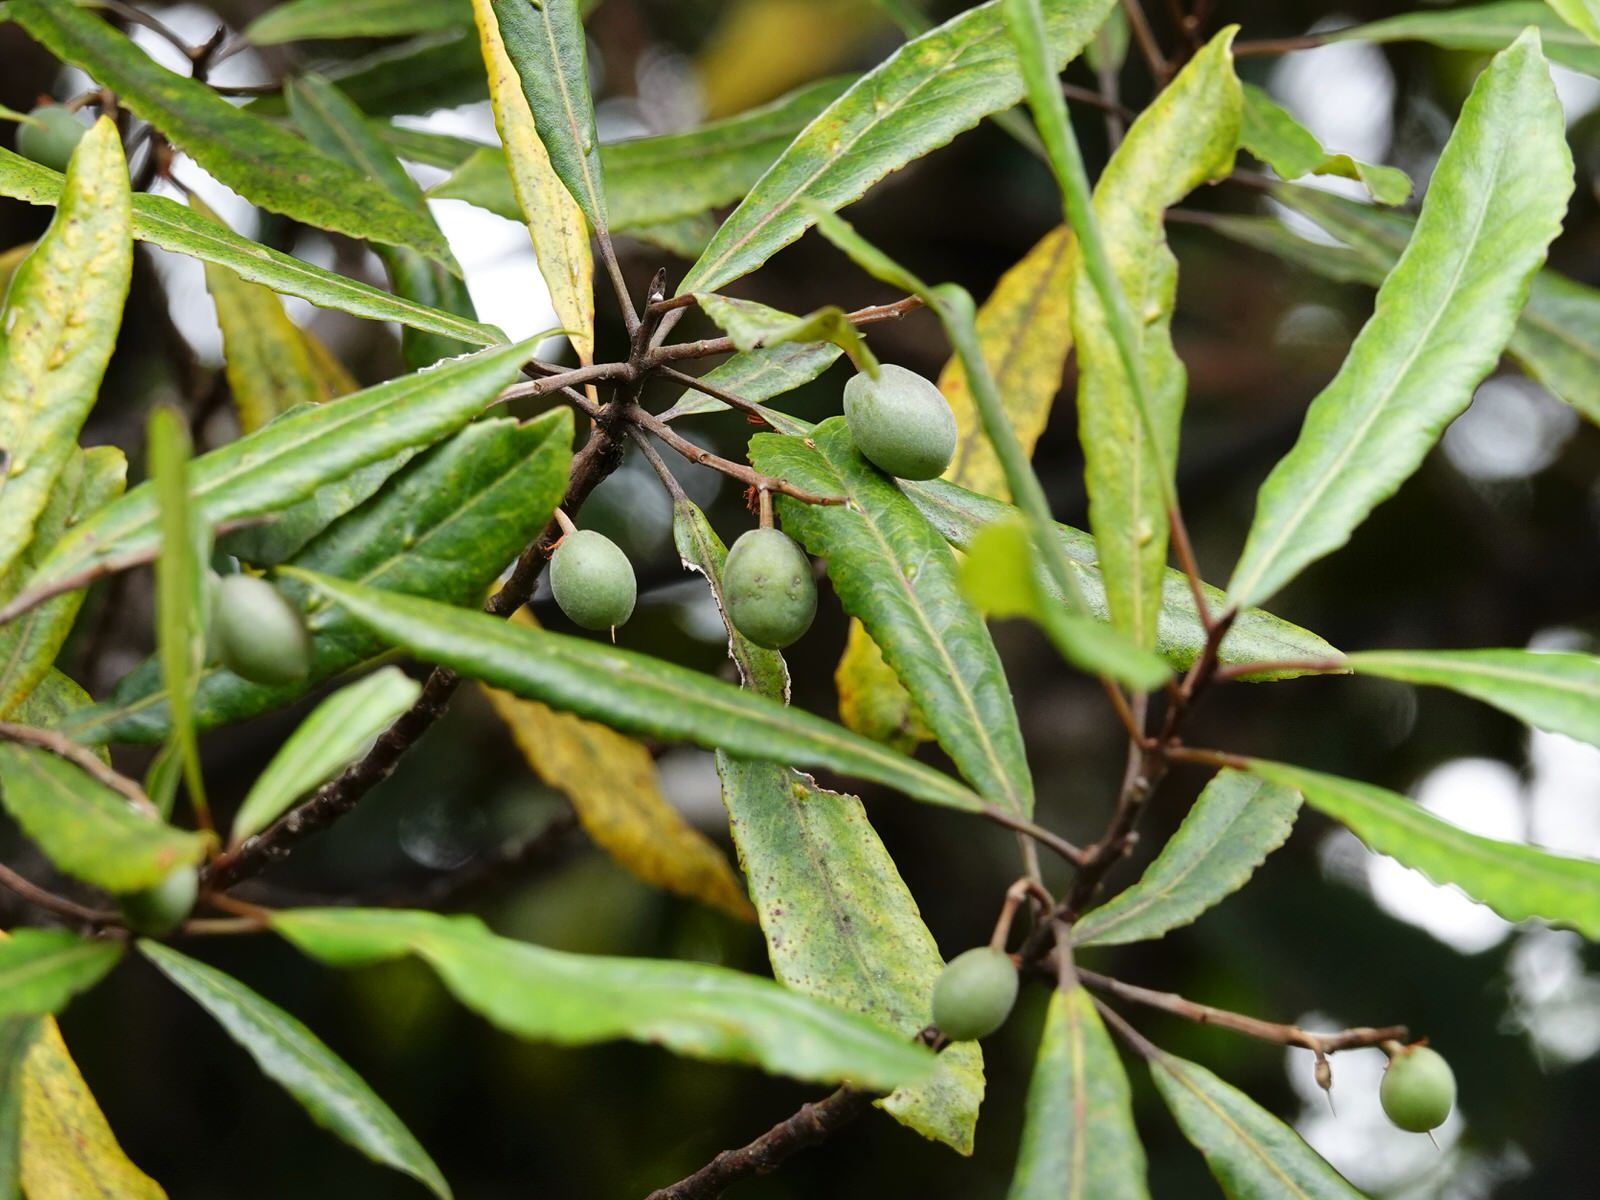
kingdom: Plantae
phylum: Tracheophyta
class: Magnoliopsida
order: Oxalidales
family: Elaeocarpaceae
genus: Elaeocarpus
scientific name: Elaeocarpus dentatus
